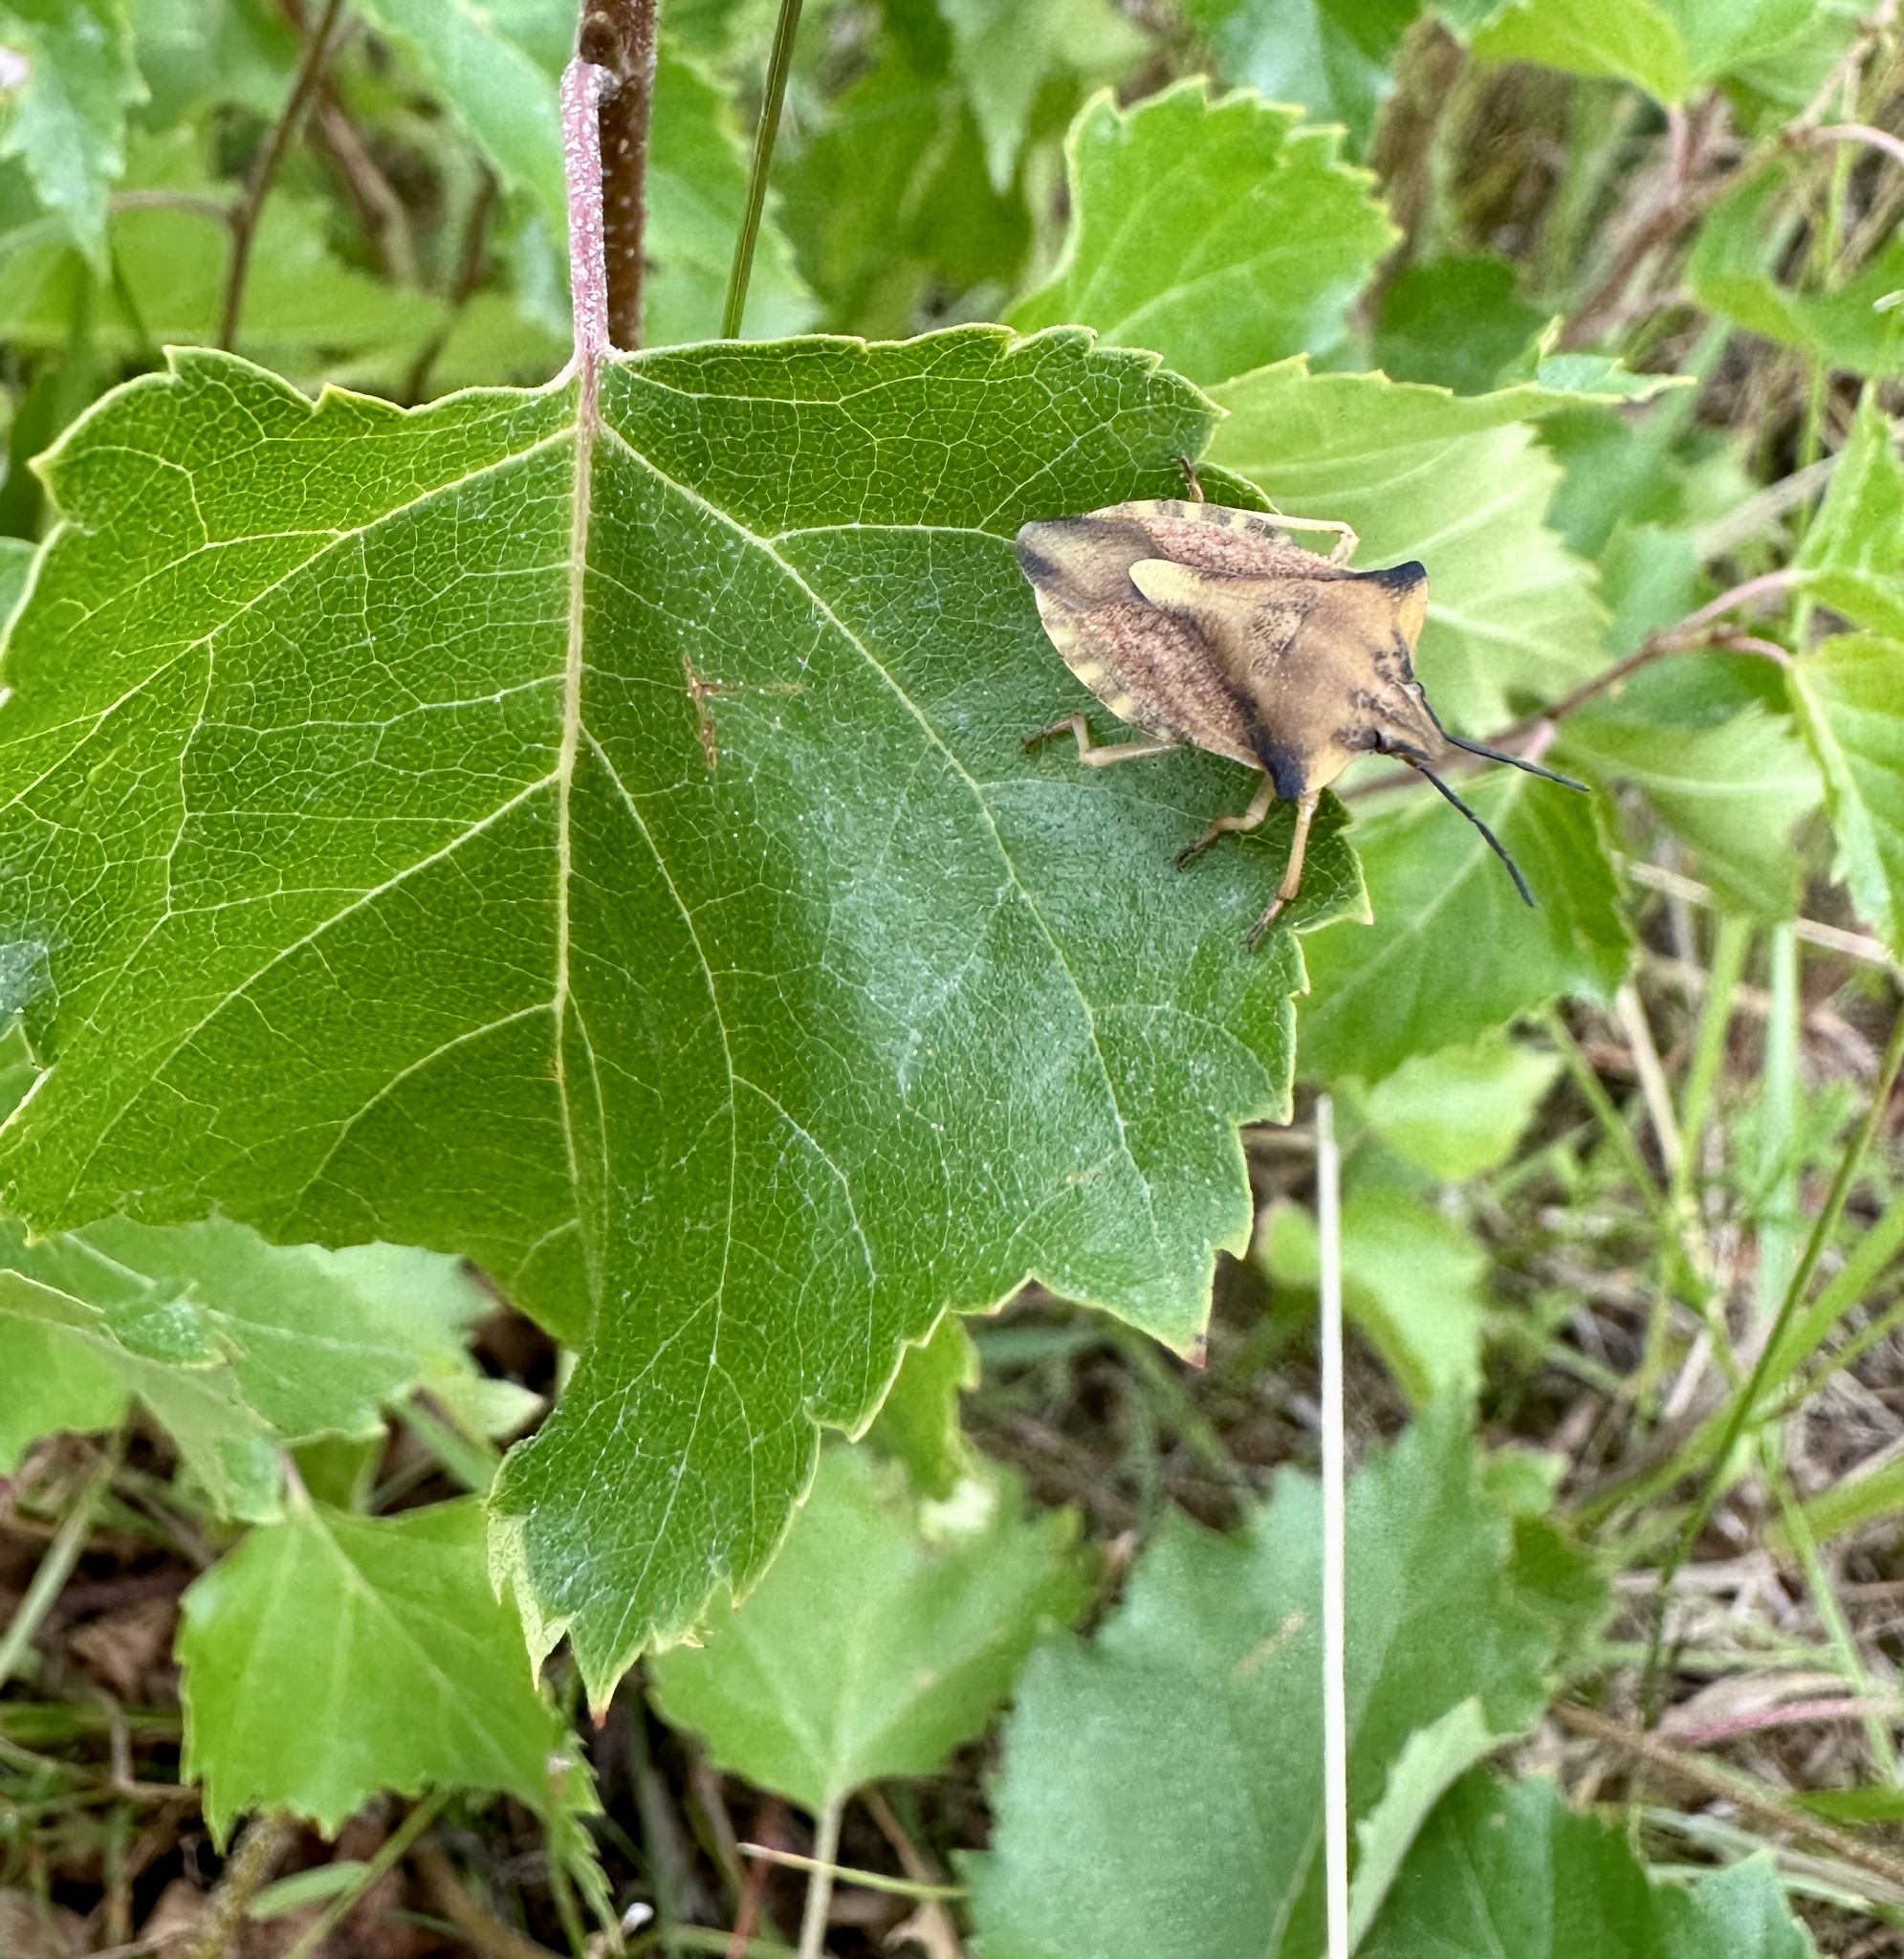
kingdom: Animalia
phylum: Arthropoda
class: Insecta
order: Hemiptera
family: Pentatomidae
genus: Carpocoris
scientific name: Carpocoris fuscispinus
